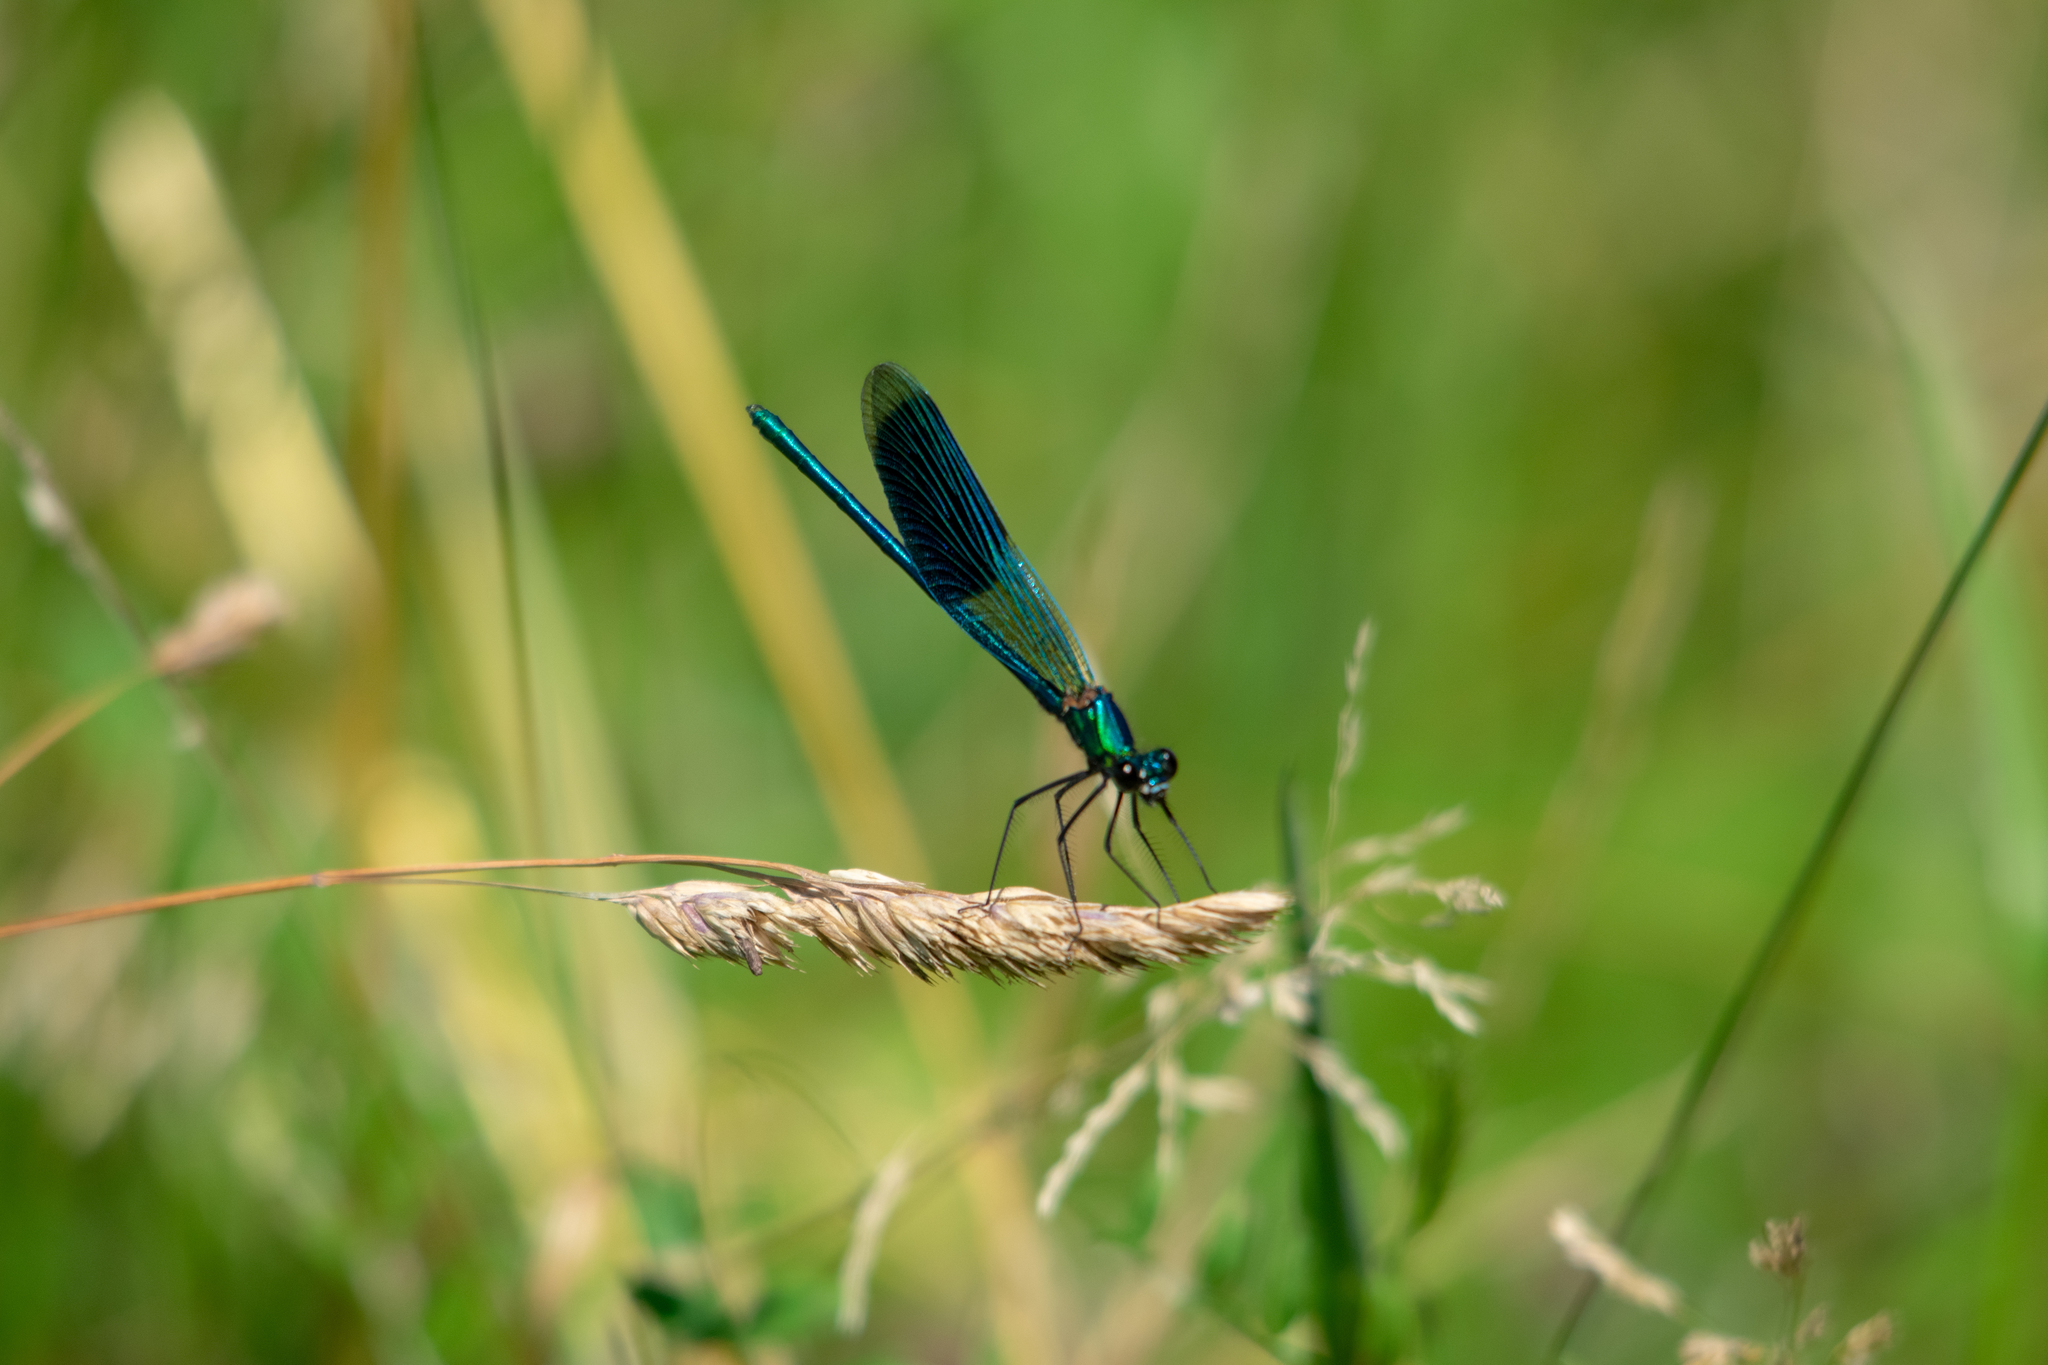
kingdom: Animalia
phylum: Arthropoda
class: Insecta
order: Odonata
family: Calopterygidae
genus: Calopteryx
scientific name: Calopteryx splendens
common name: Banded demoiselle
